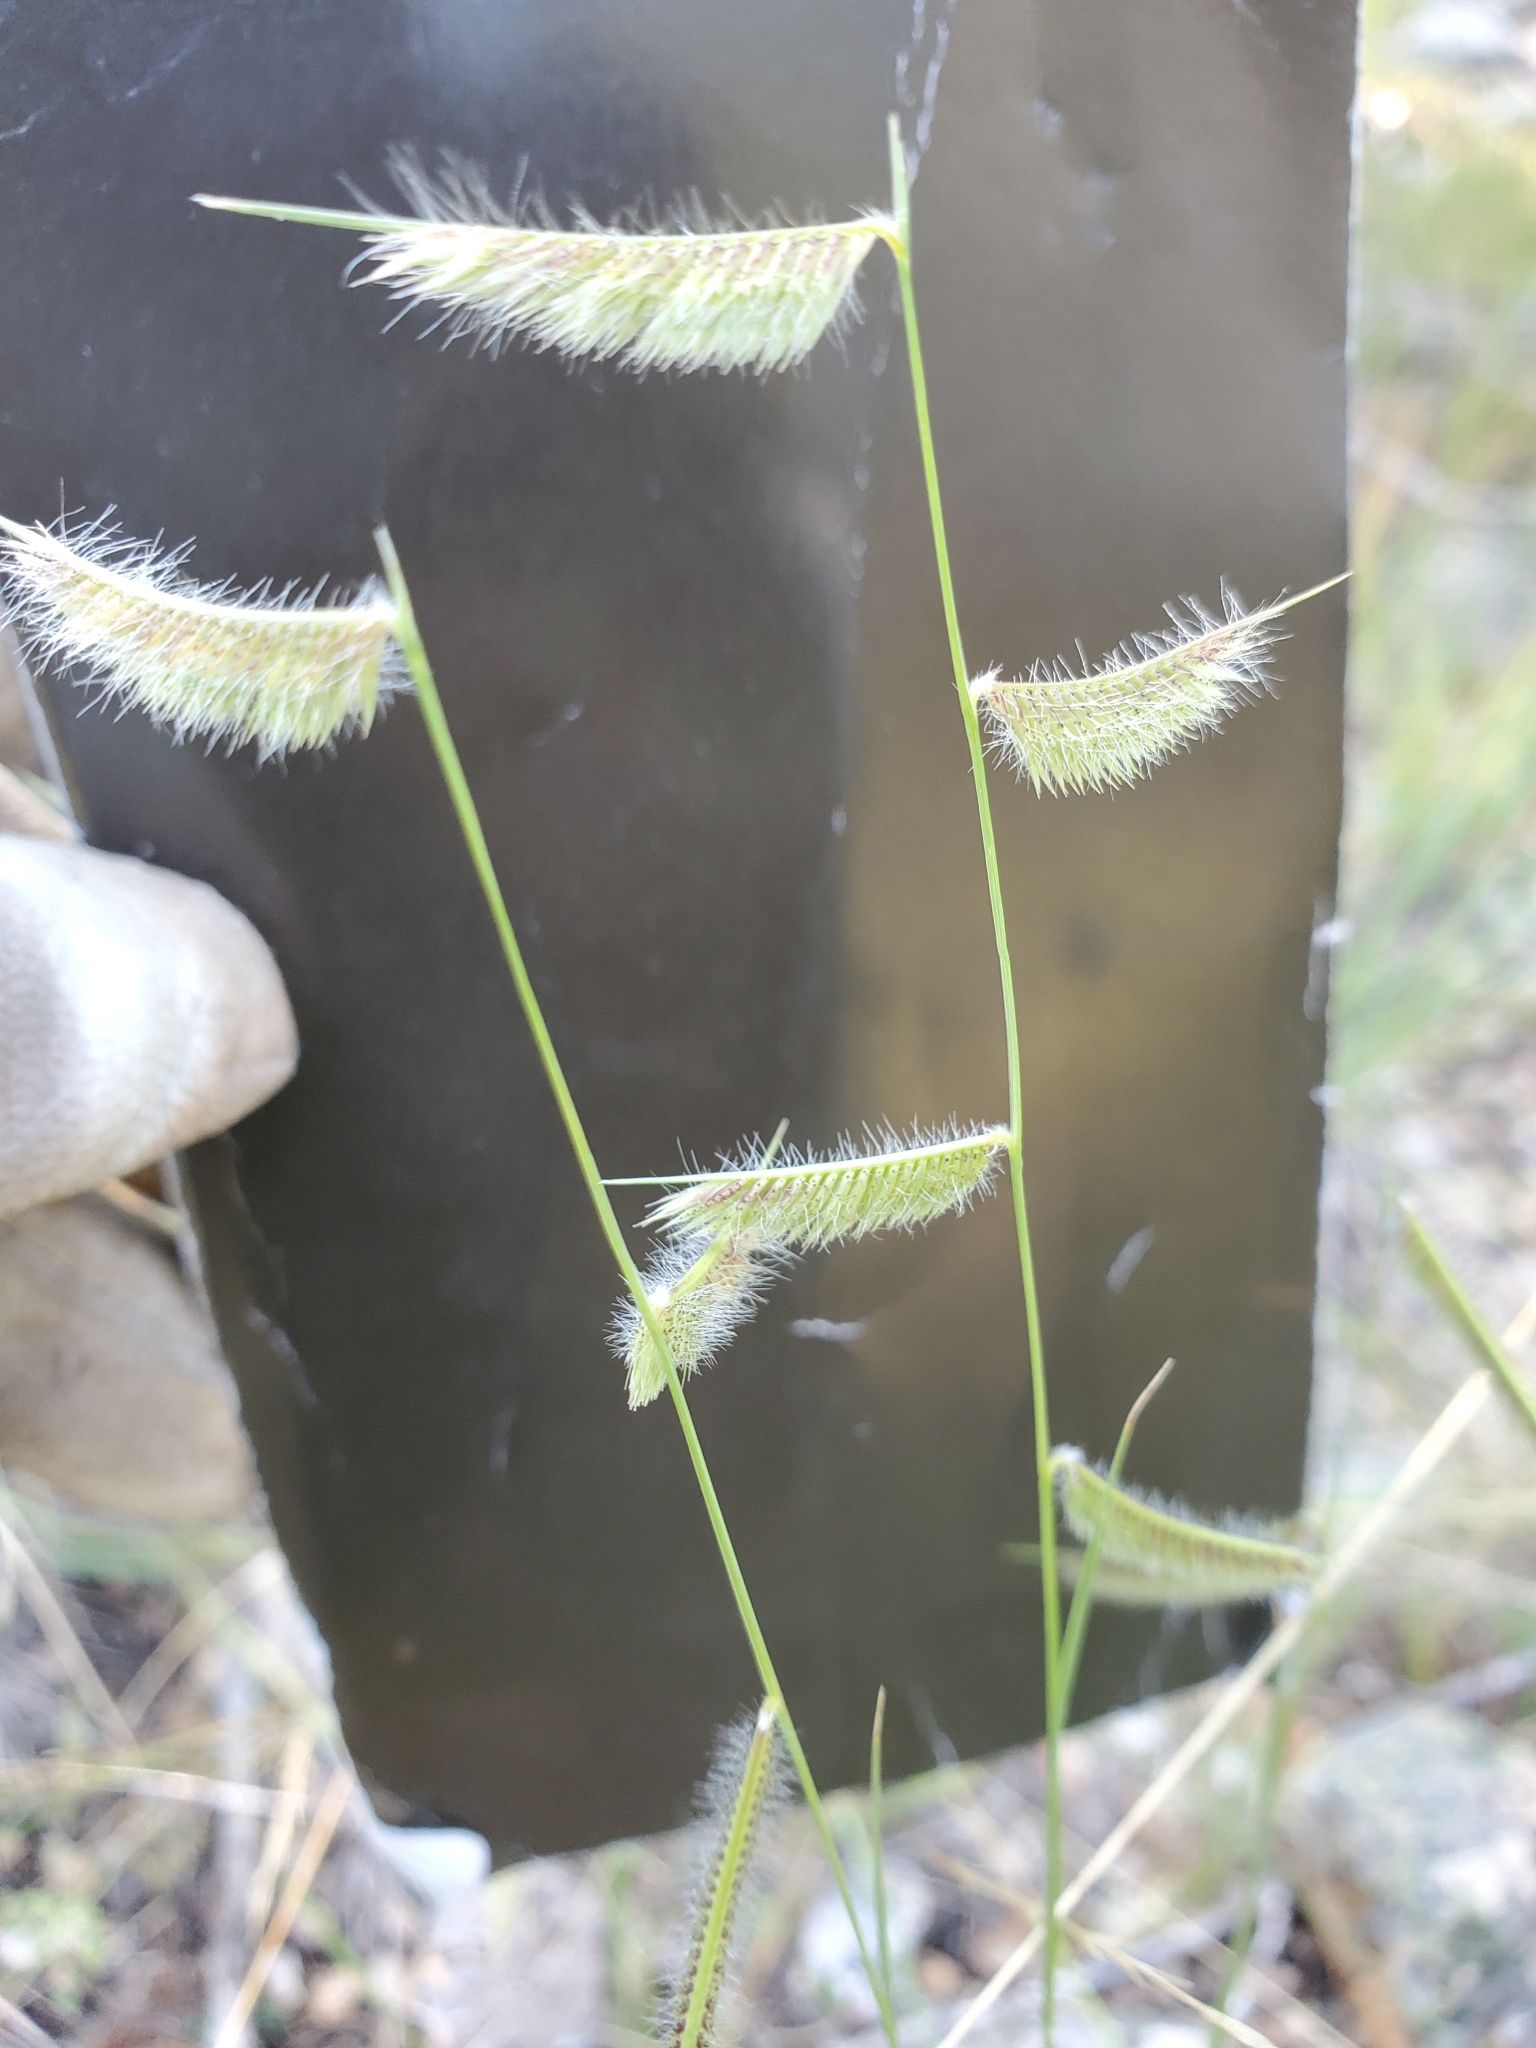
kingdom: Plantae
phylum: Tracheophyta
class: Liliopsida
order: Poales
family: Poaceae
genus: Bouteloua
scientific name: Bouteloua hirsuta
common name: Hairy grama
